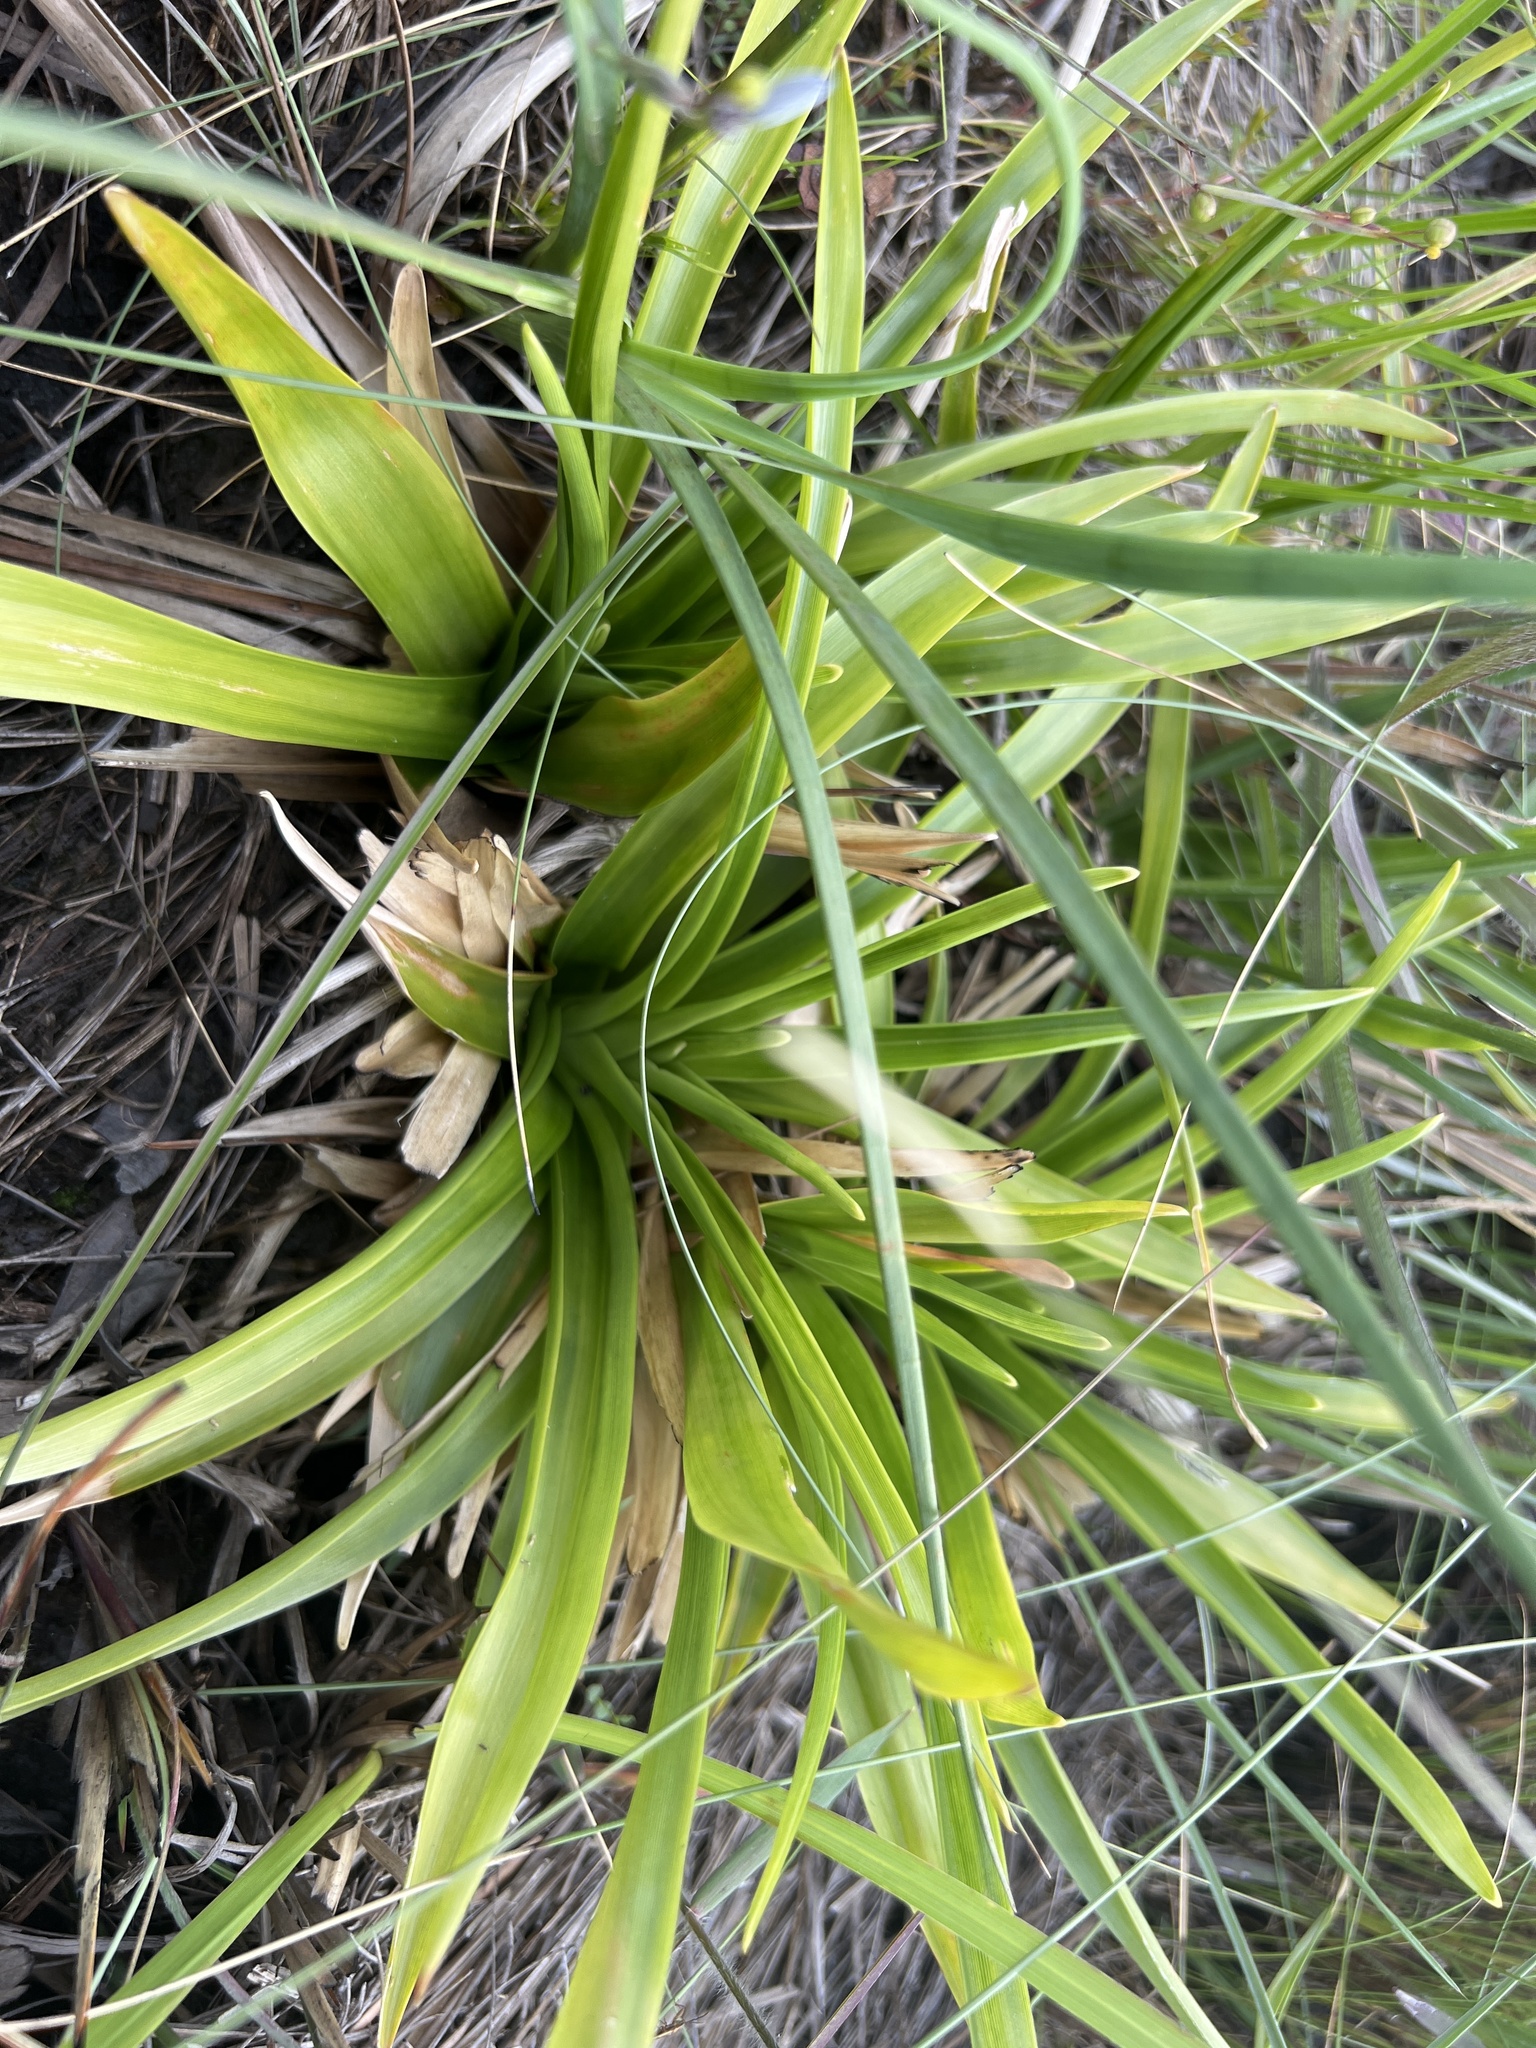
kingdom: Plantae
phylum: Tracheophyta
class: Liliopsida
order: Poales
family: Eriocaulaceae
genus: Eriocaulon
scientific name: Eriocaulon decangulare
